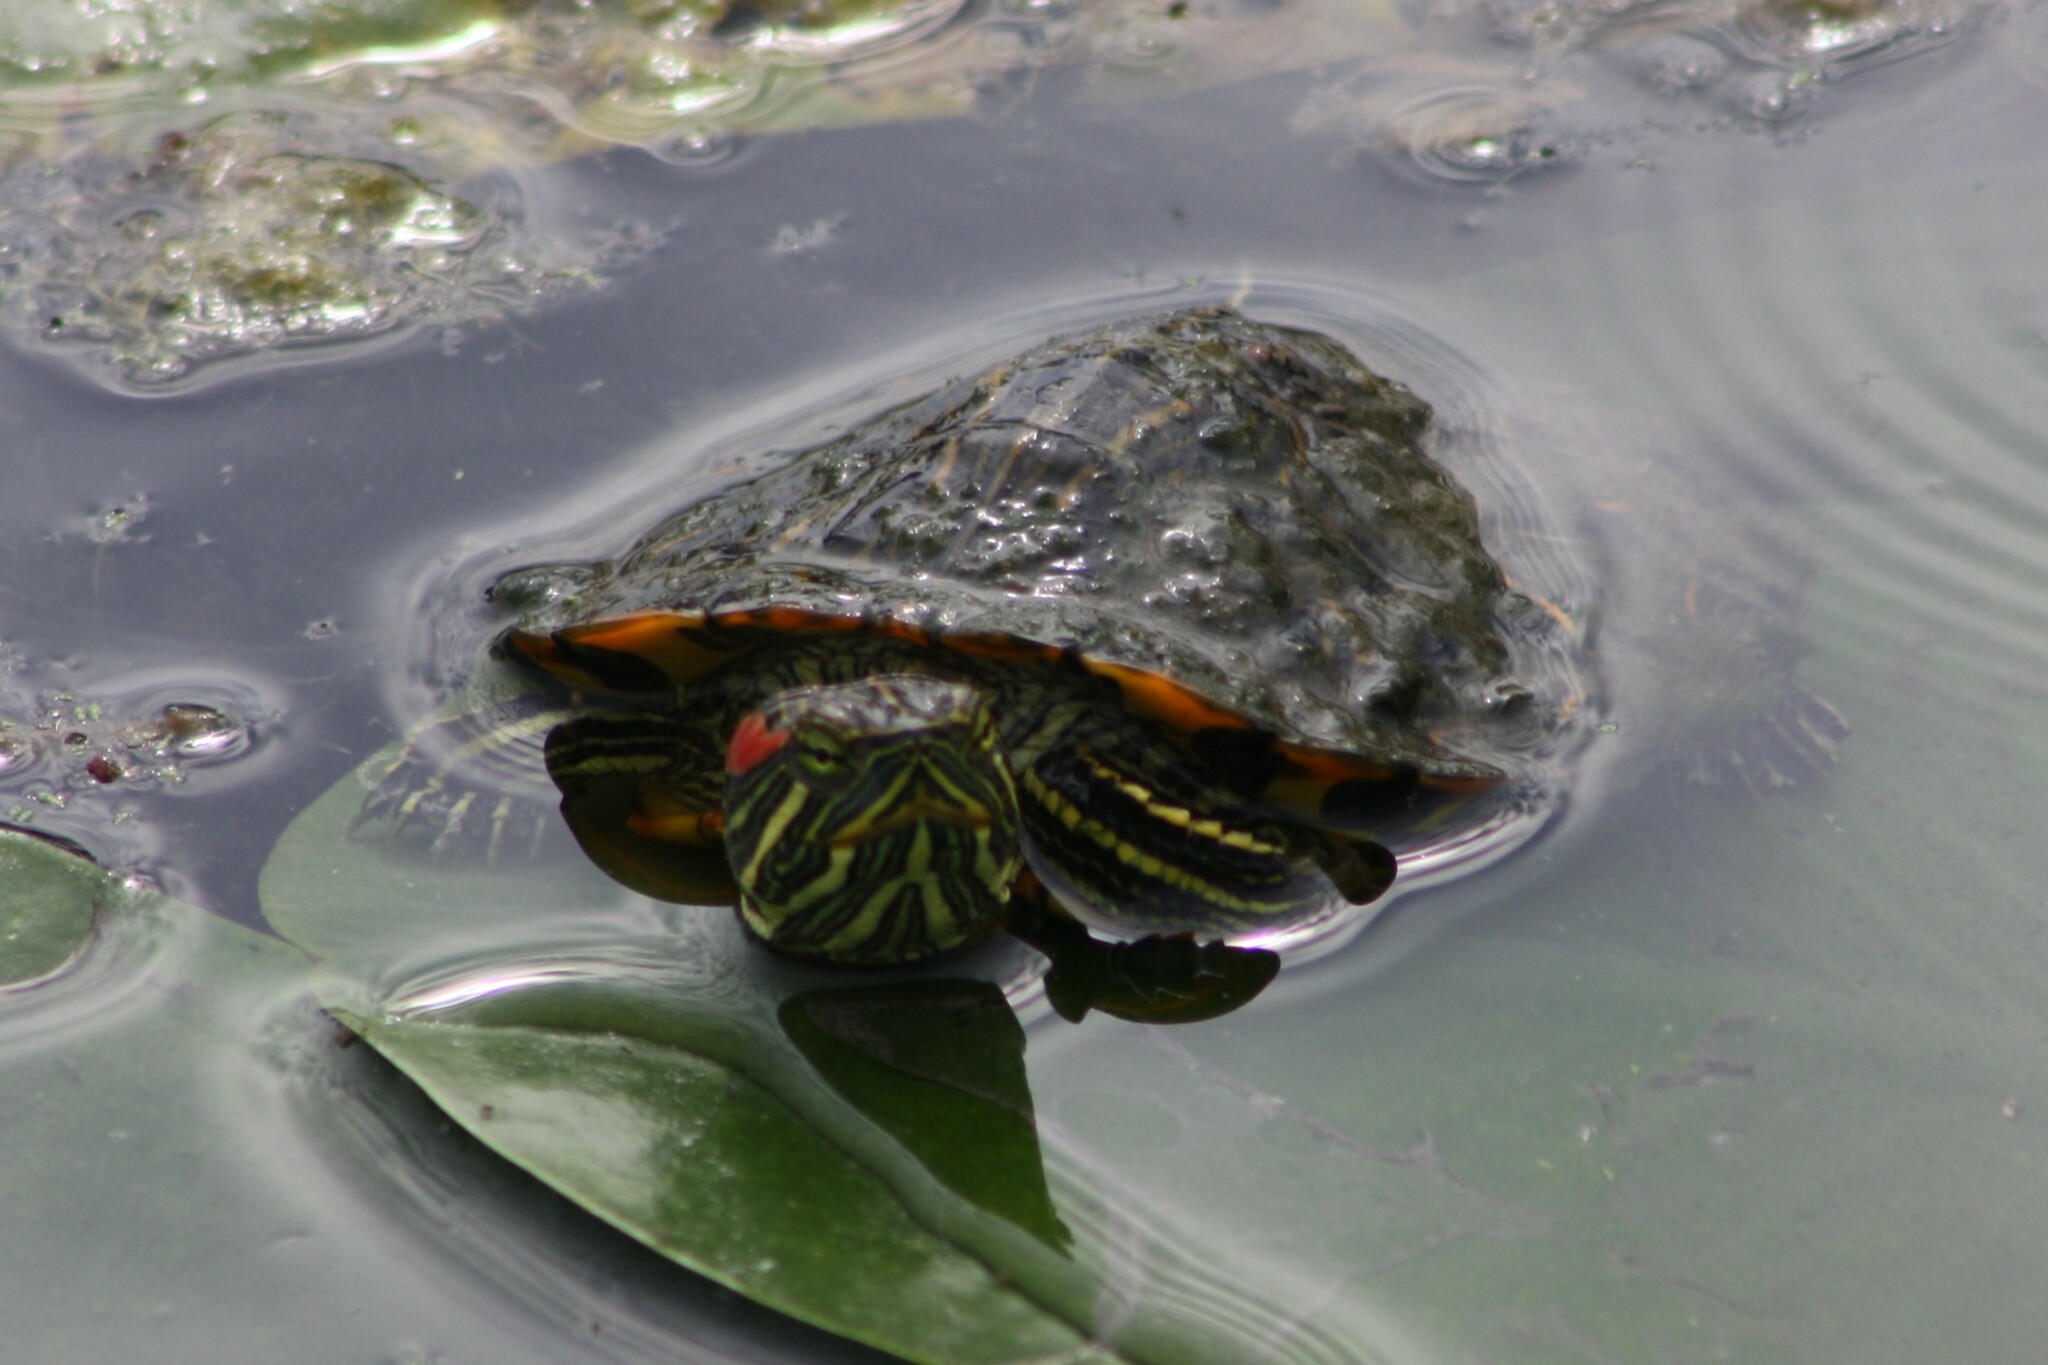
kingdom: Animalia
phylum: Chordata
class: Testudines
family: Emydidae
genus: Trachemys
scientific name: Trachemys scripta
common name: Slider
